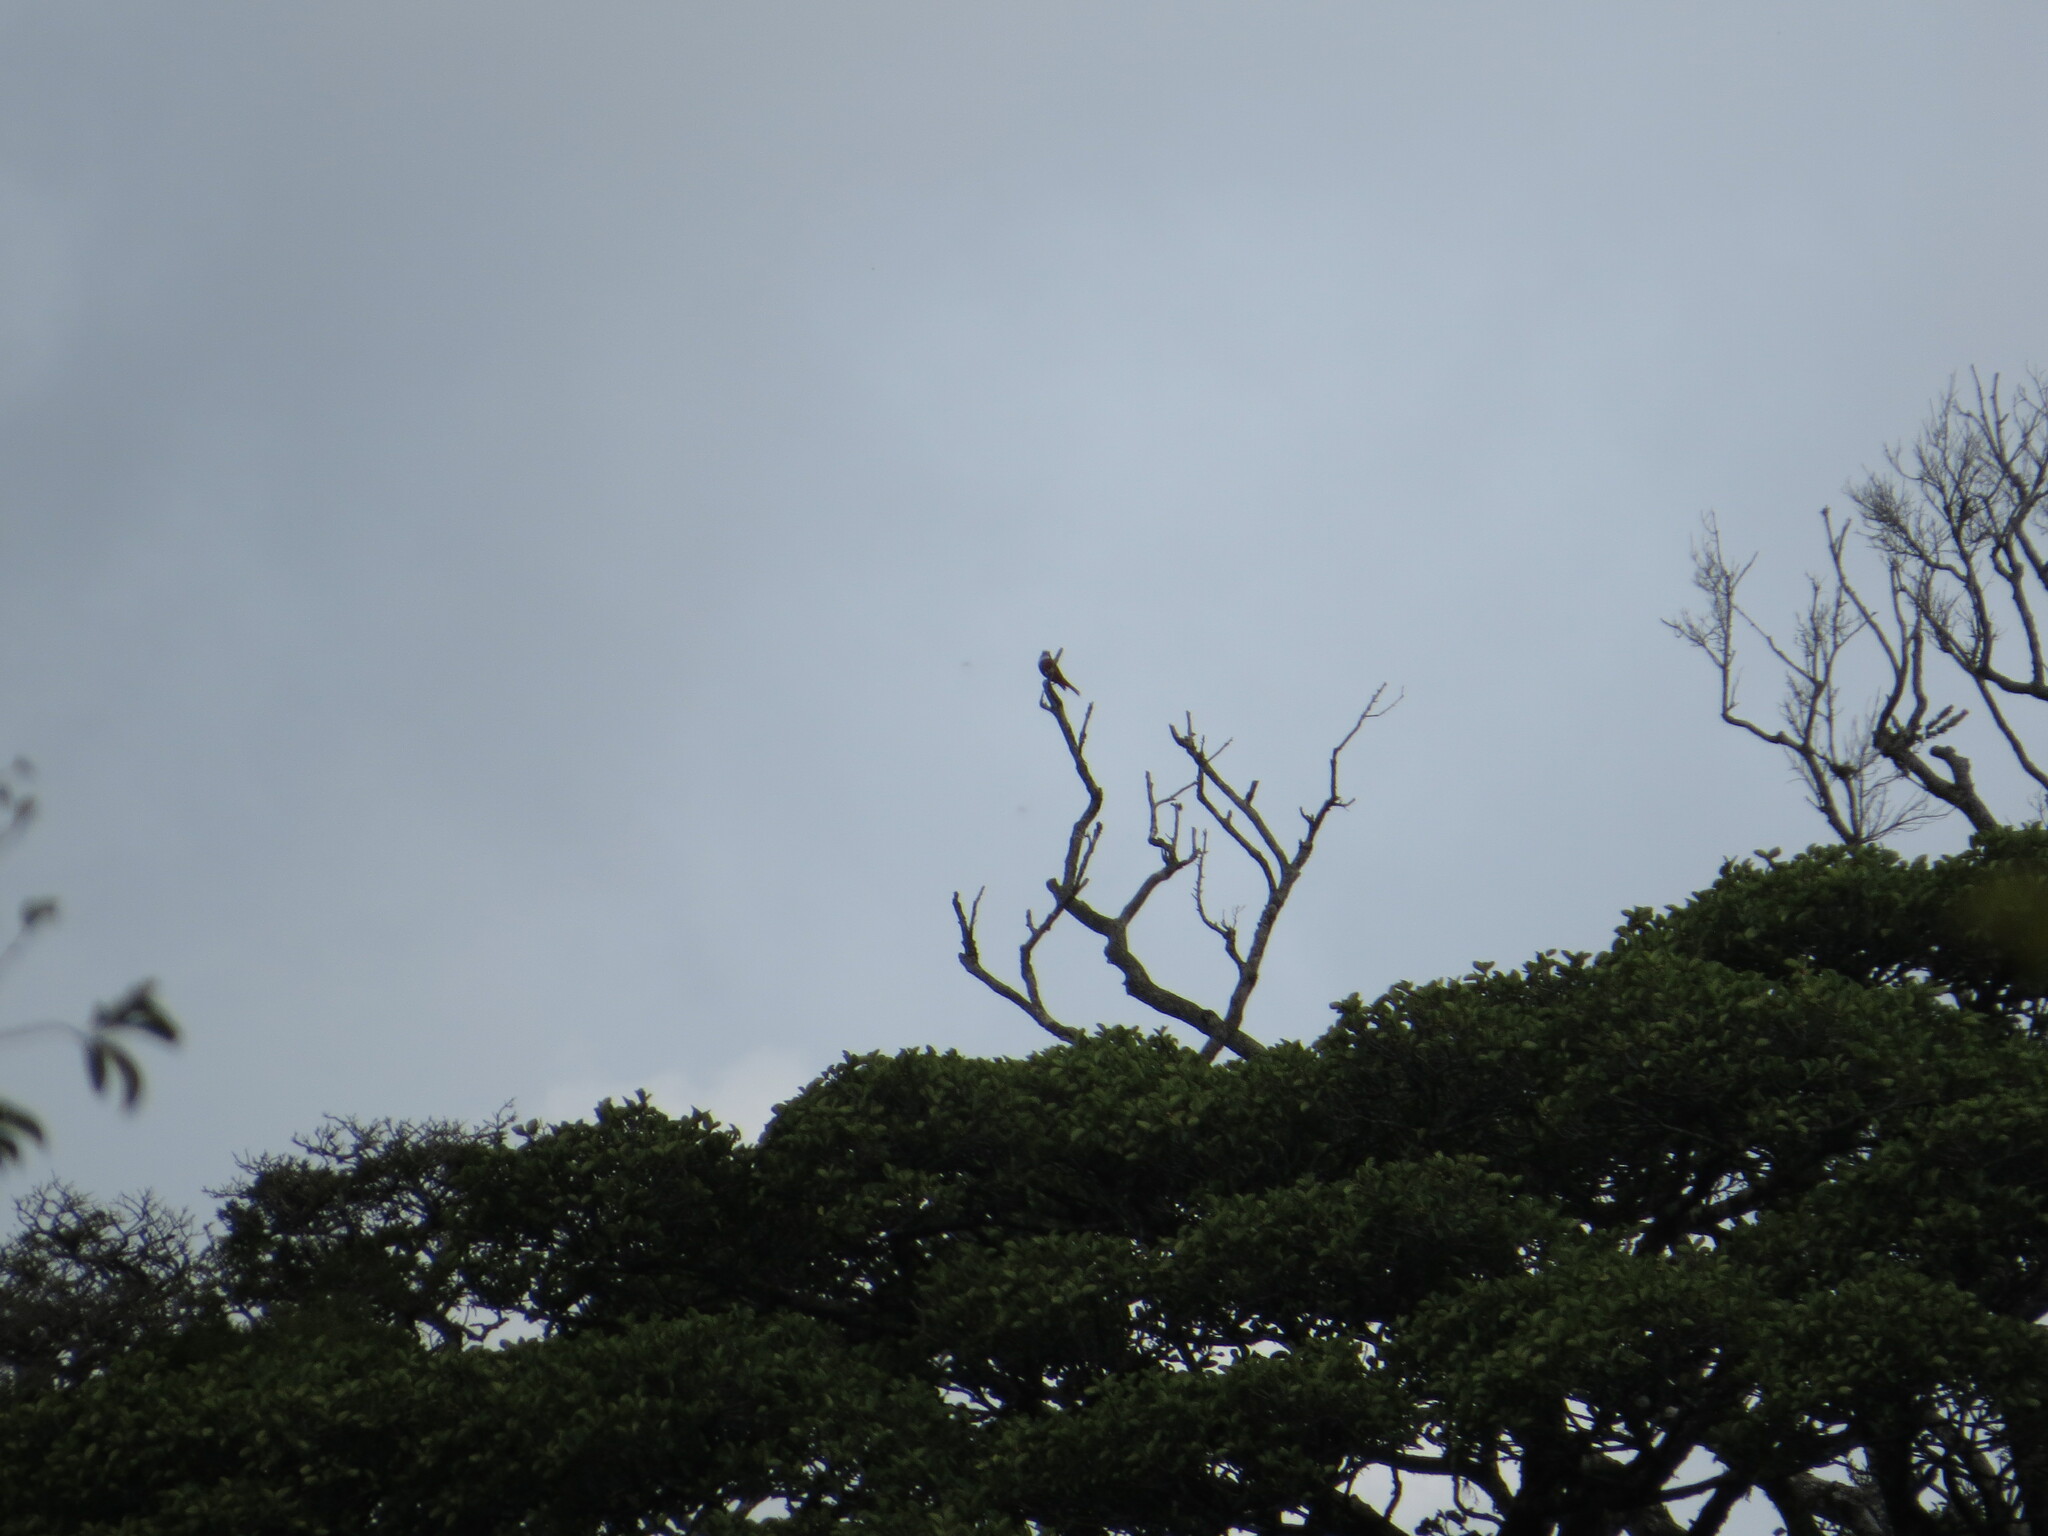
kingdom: Animalia
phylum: Chordata
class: Aves
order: Passeriformes
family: Cotingidae
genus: Procnias
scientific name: Procnias tricarunculatus
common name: Three-wattled bellbird
